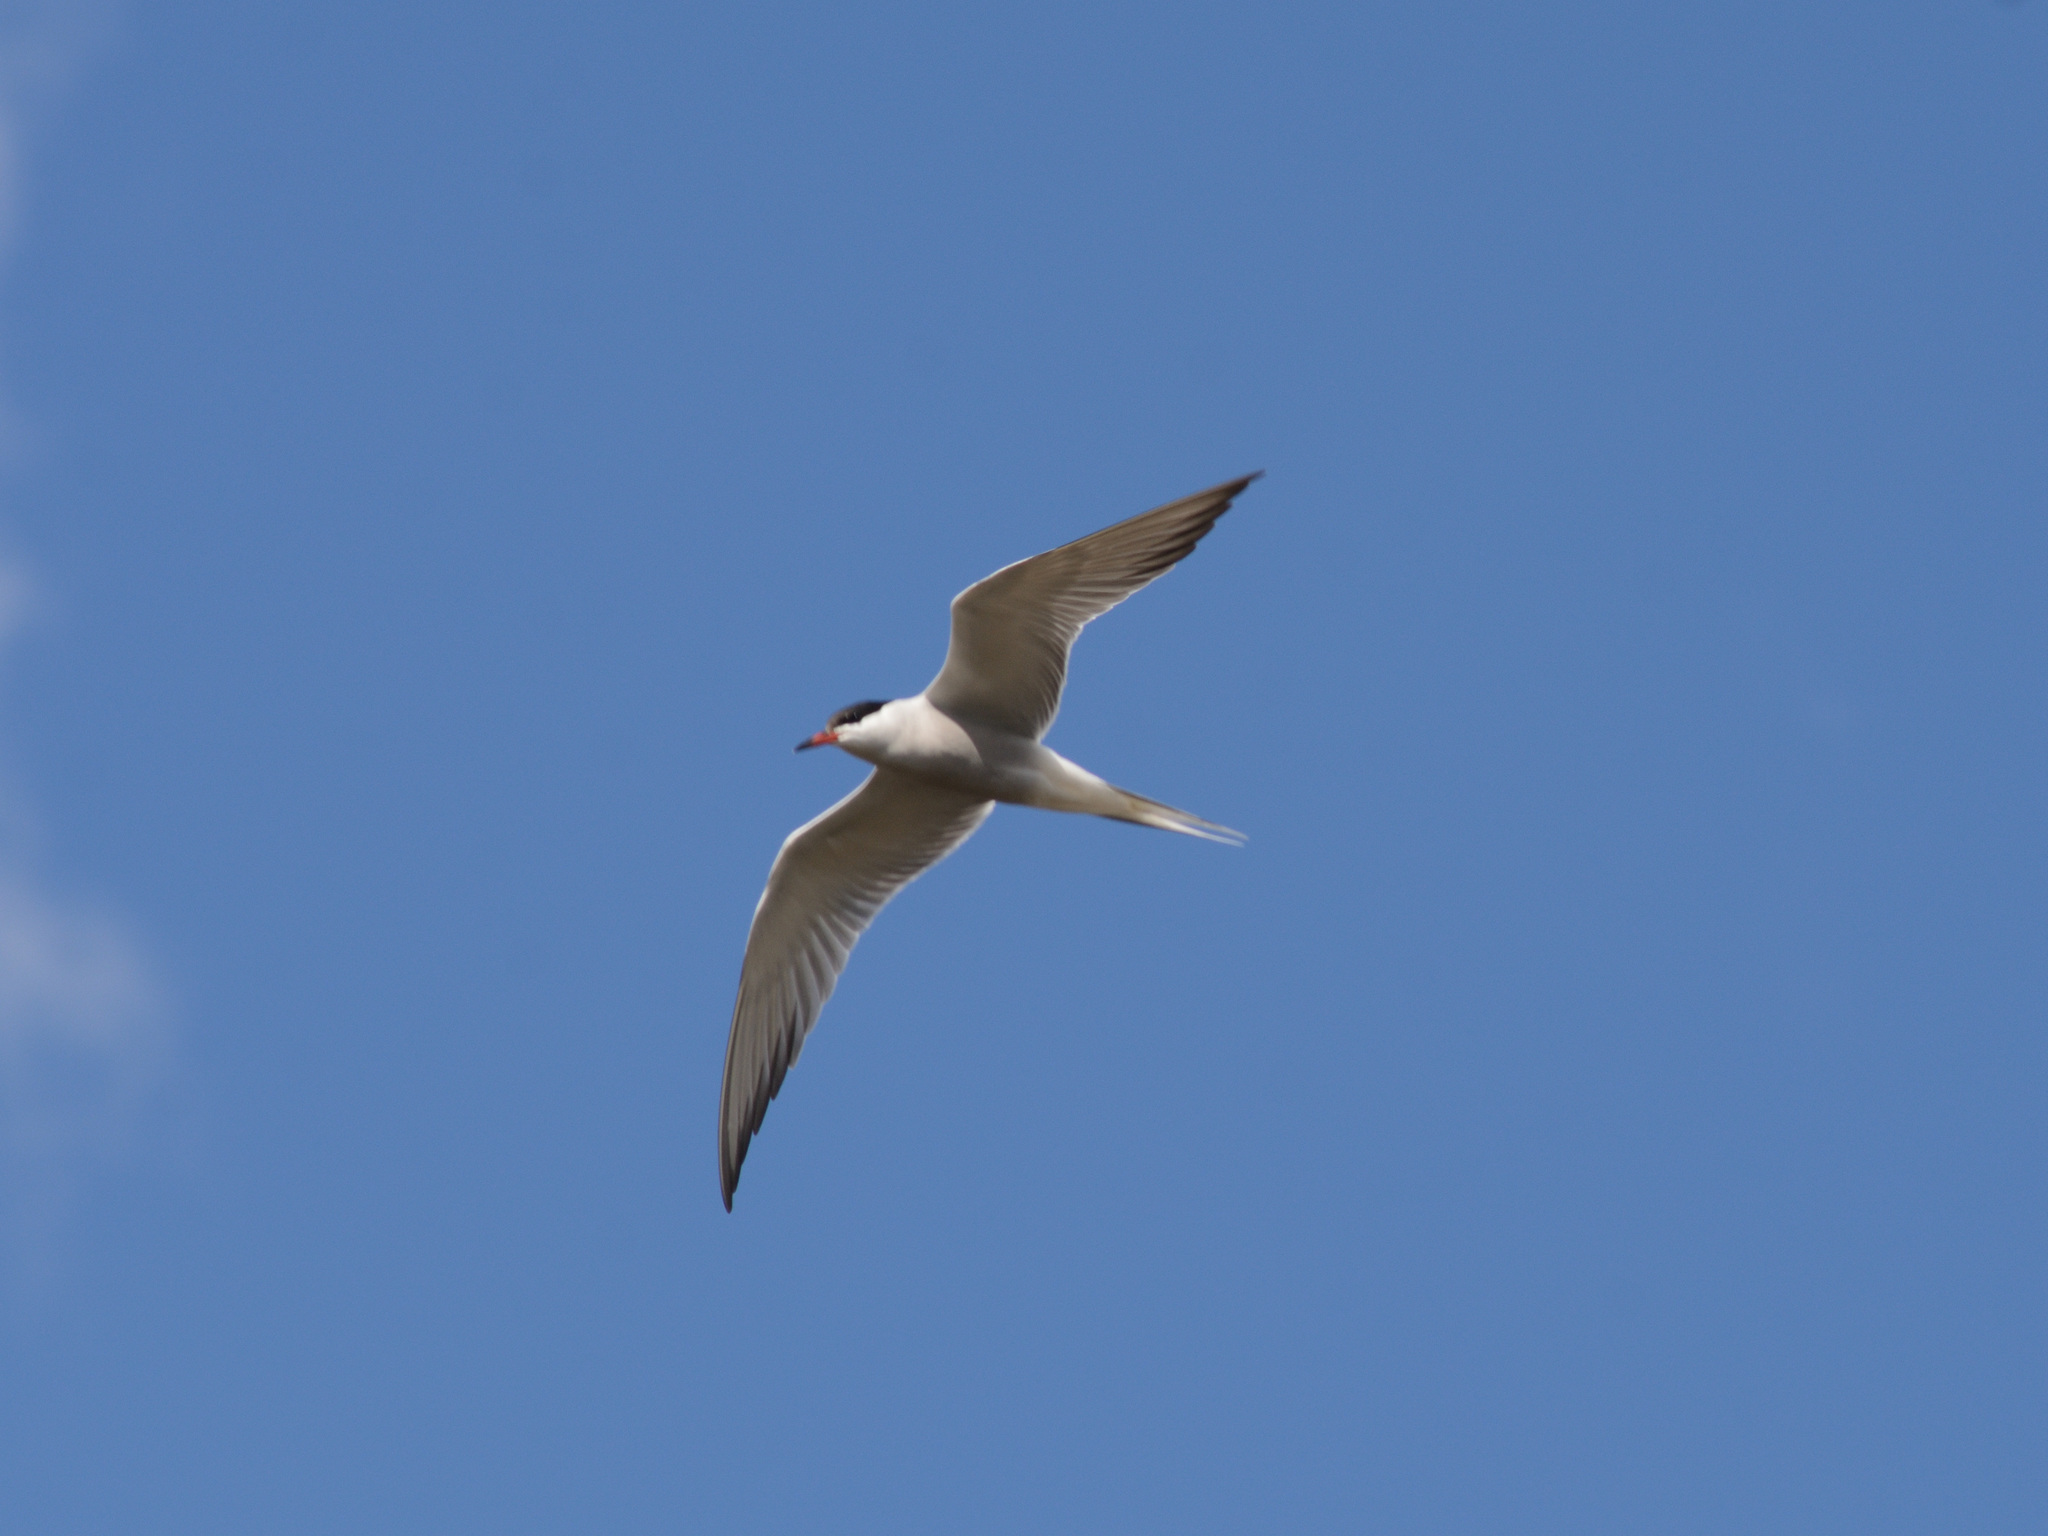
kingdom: Animalia
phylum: Chordata
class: Aves
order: Charadriiformes
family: Laridae
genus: Sterna
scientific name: Sterna hirundo
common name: Common tern
